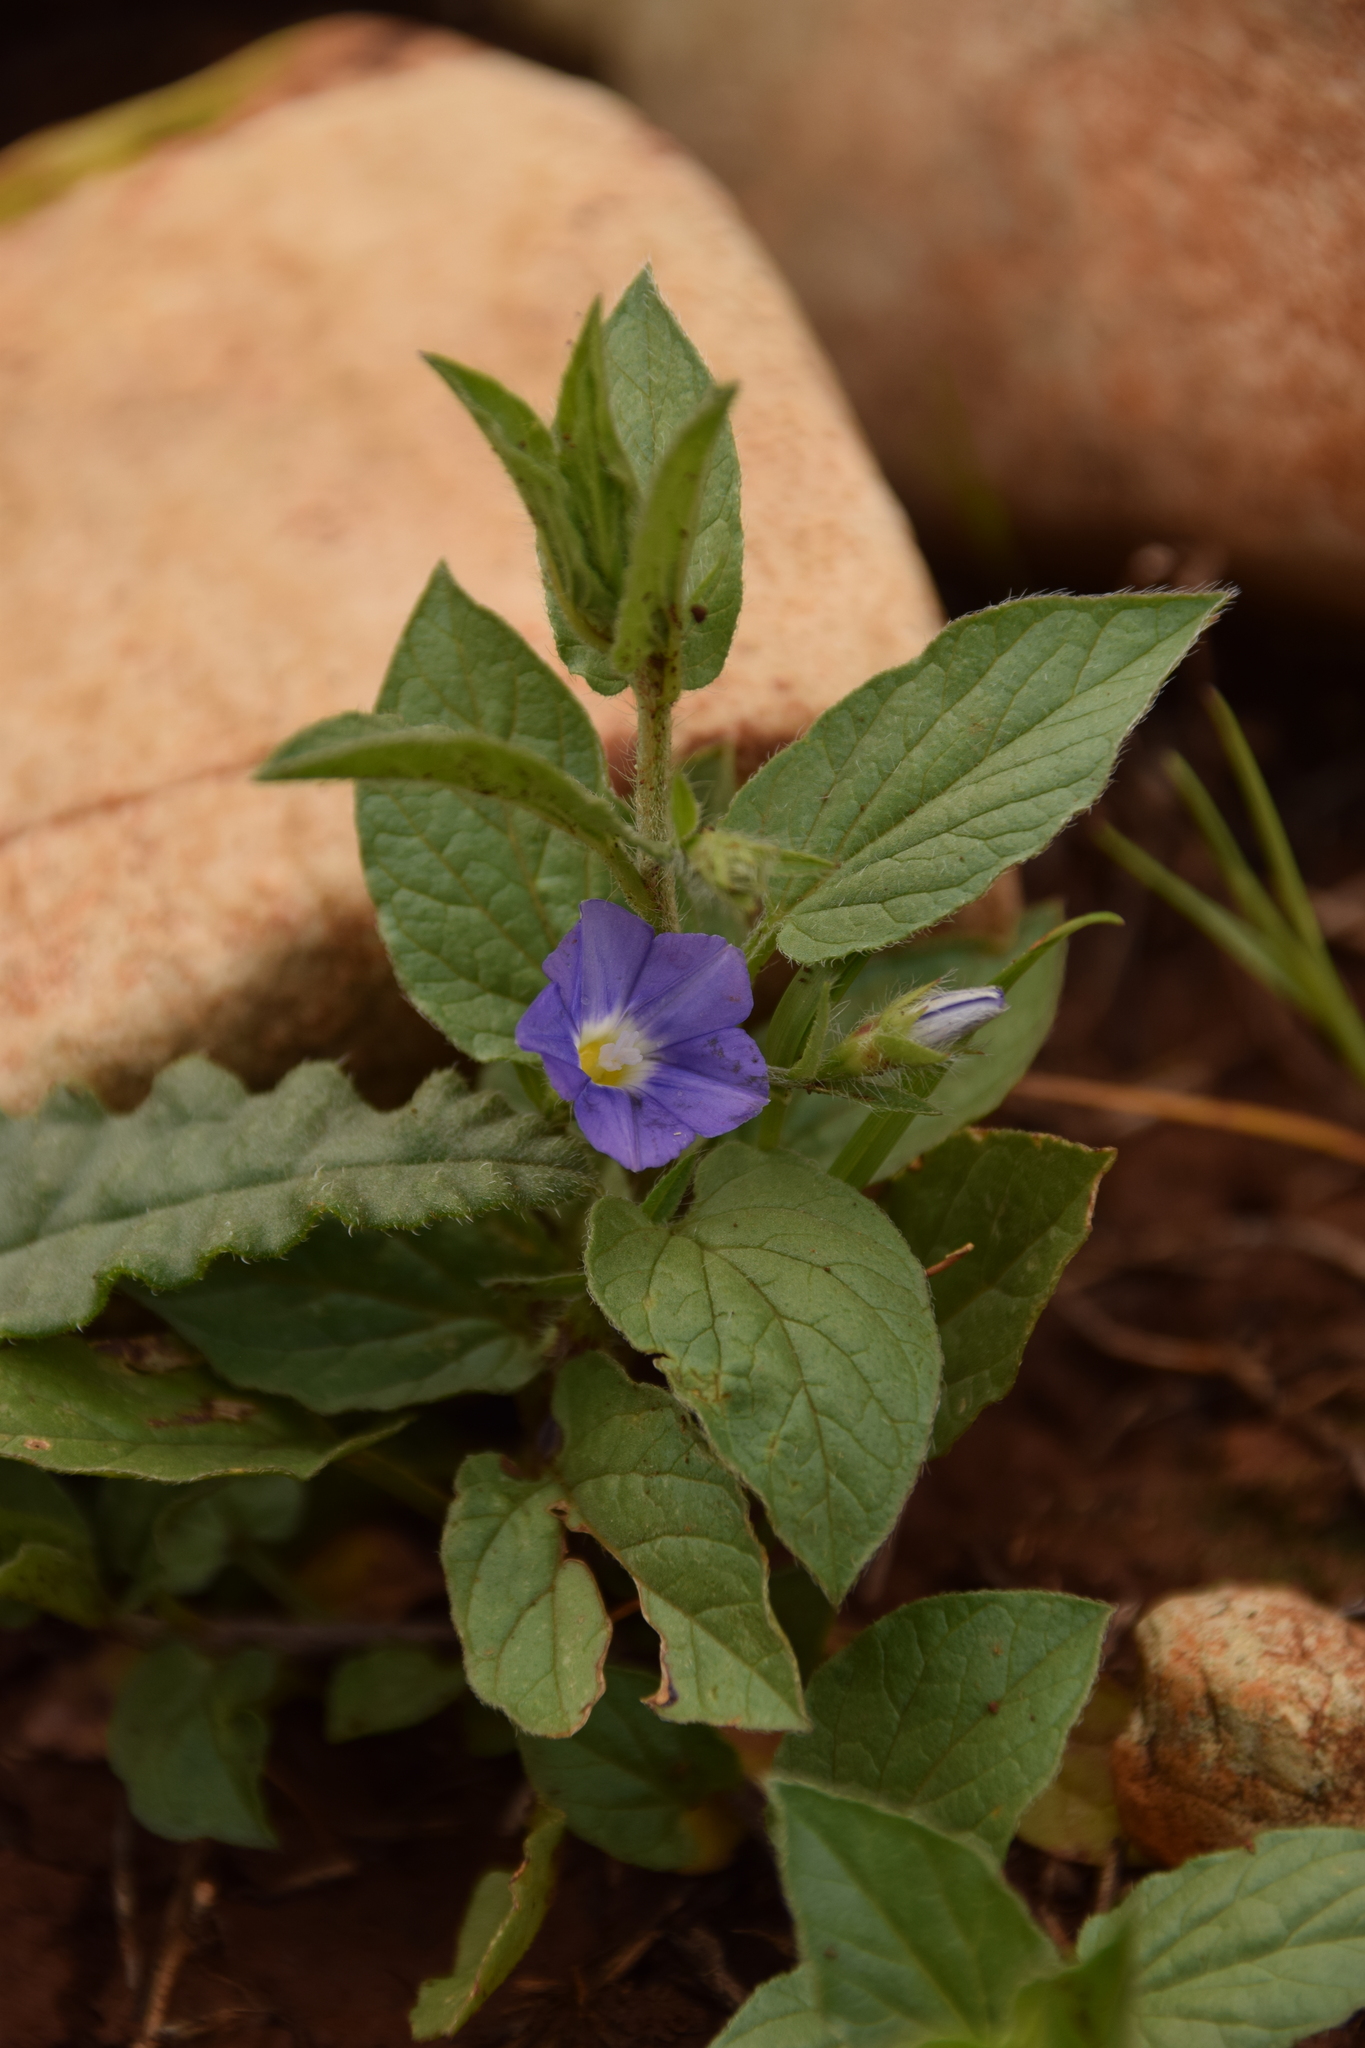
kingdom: Plantae
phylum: Tracheophyta
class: Magnoliopsida
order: Solanales
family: Convolvulaceae
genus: Convolvulus
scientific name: Convolvulus siculus
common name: Small blue-convolvulus
